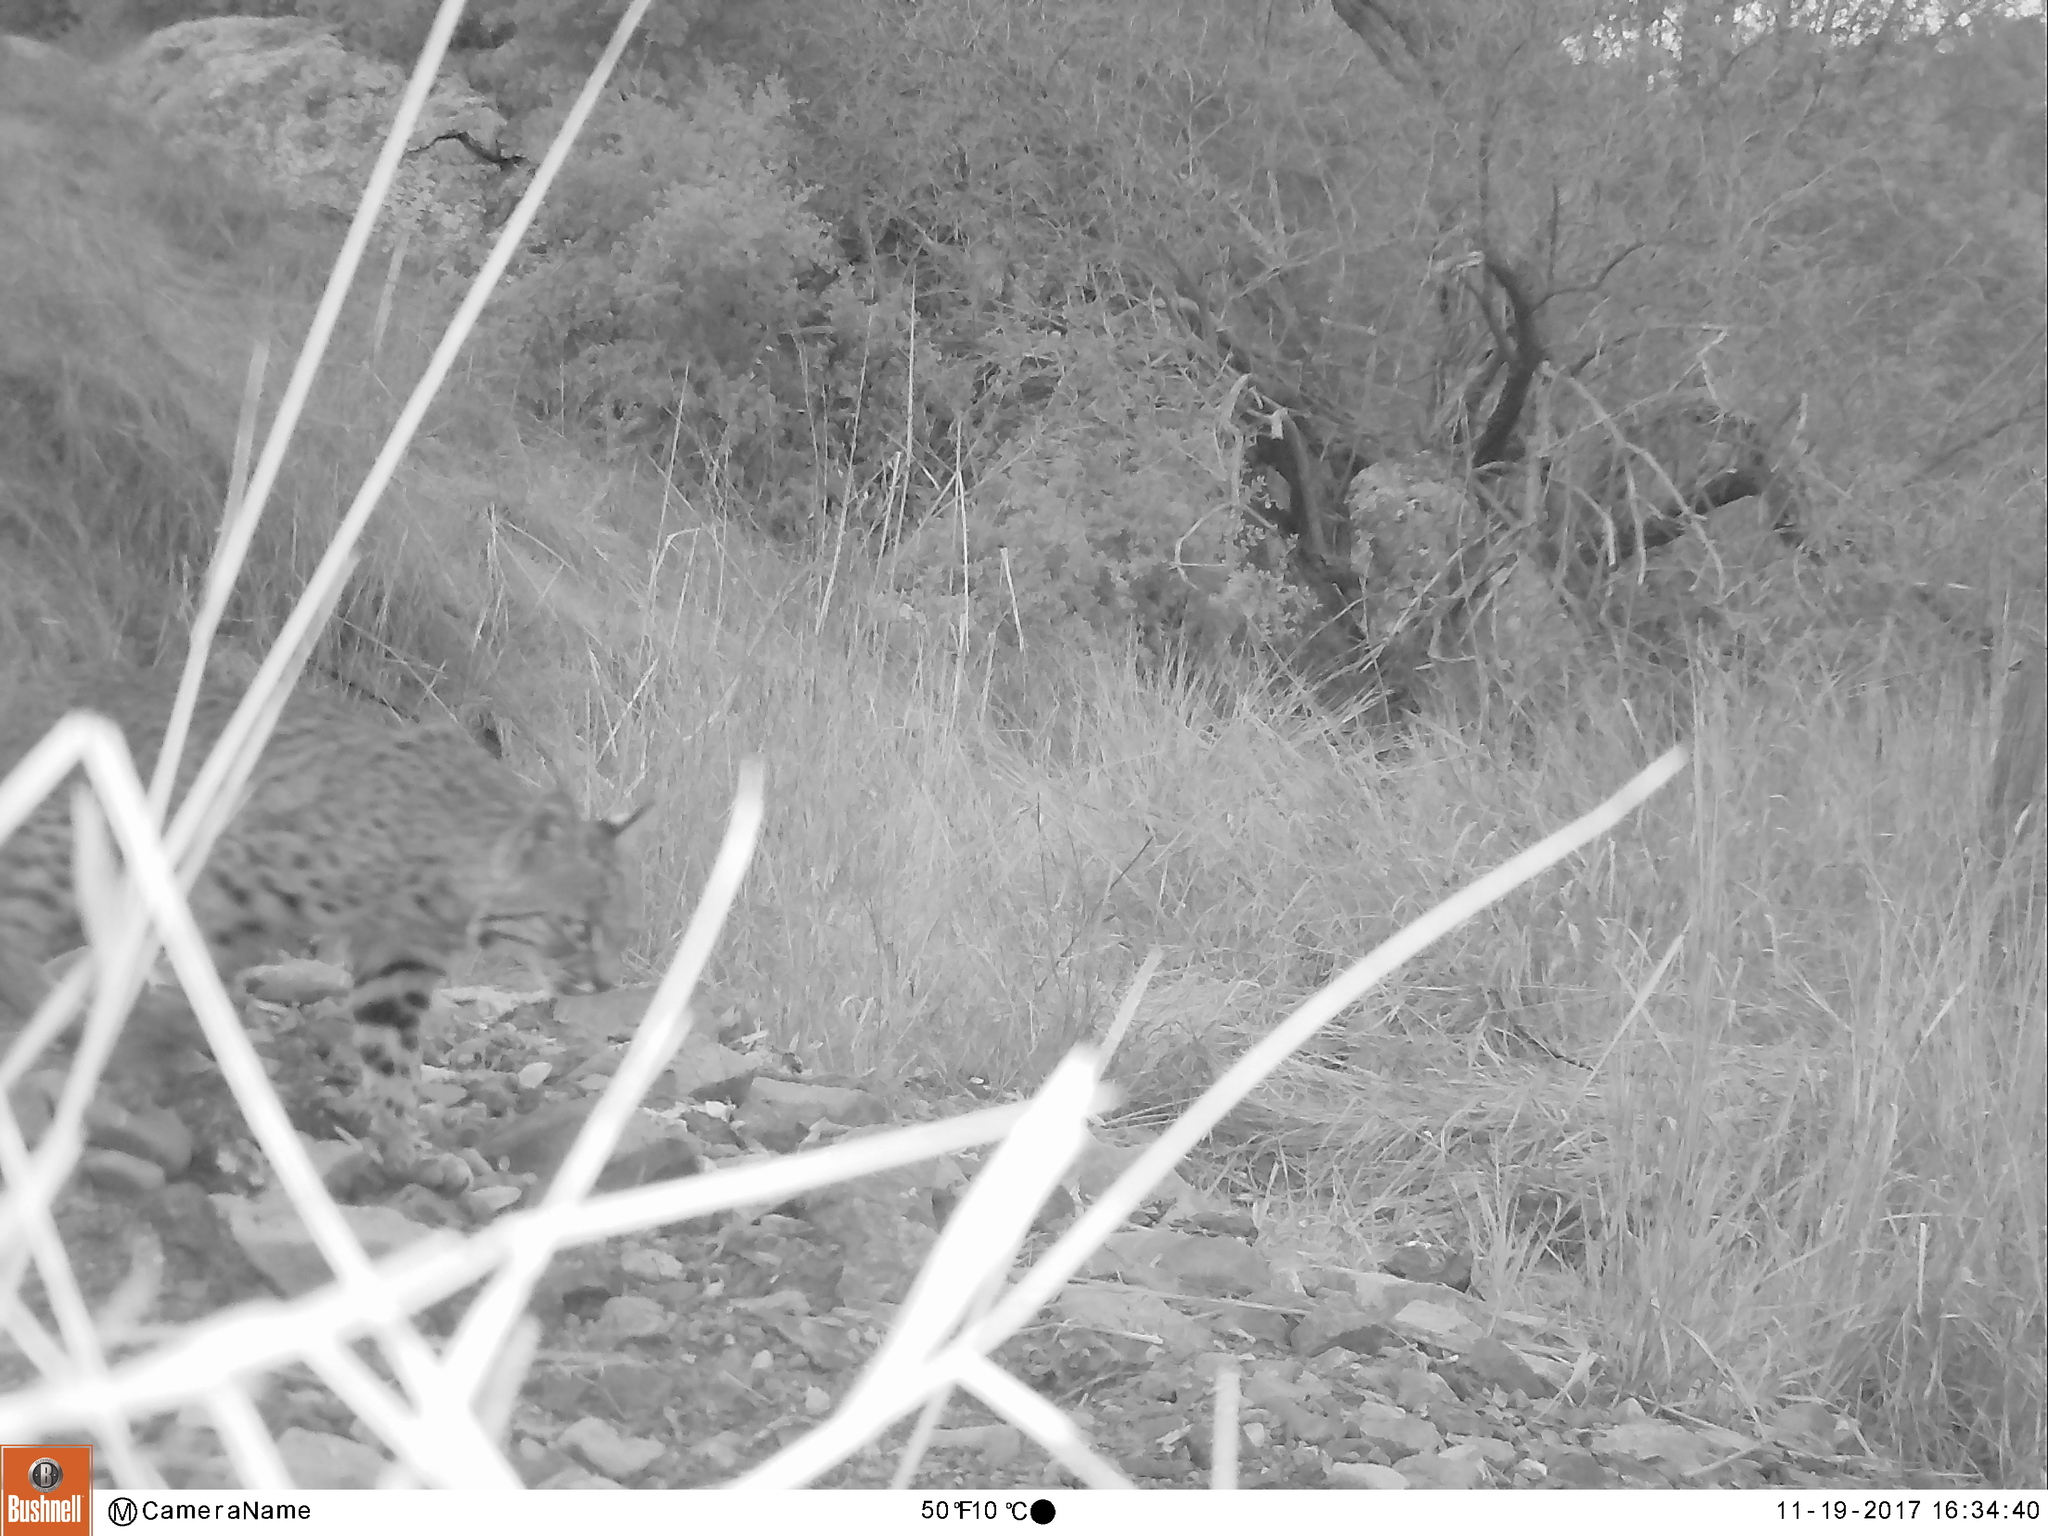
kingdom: Animalia
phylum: Chordata
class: Mammalia
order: Carnivora
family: Felidae
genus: Lynx
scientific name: Lynx rufus
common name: Bobcat
